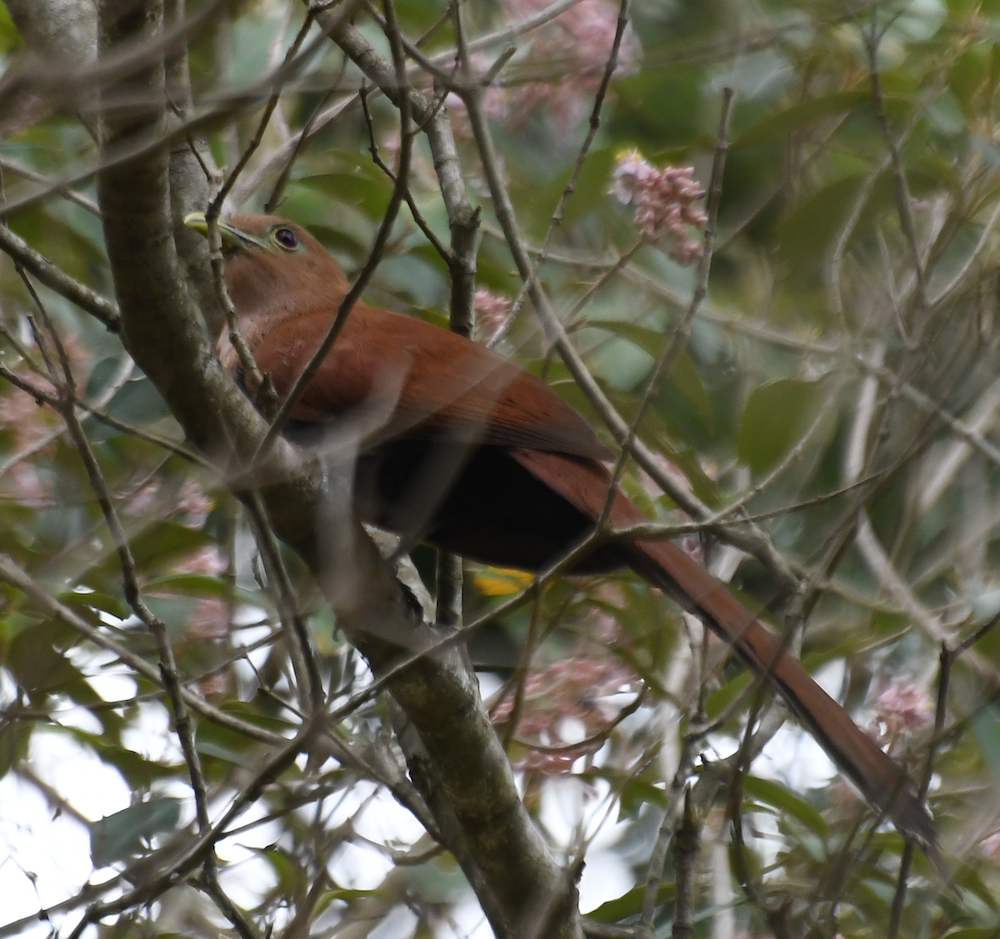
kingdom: Animalia
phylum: Chordata
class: Aves
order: Cuculiformes
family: Cuculidae
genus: Piaya
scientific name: Piaya cayana
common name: Squirrel cuckoo
